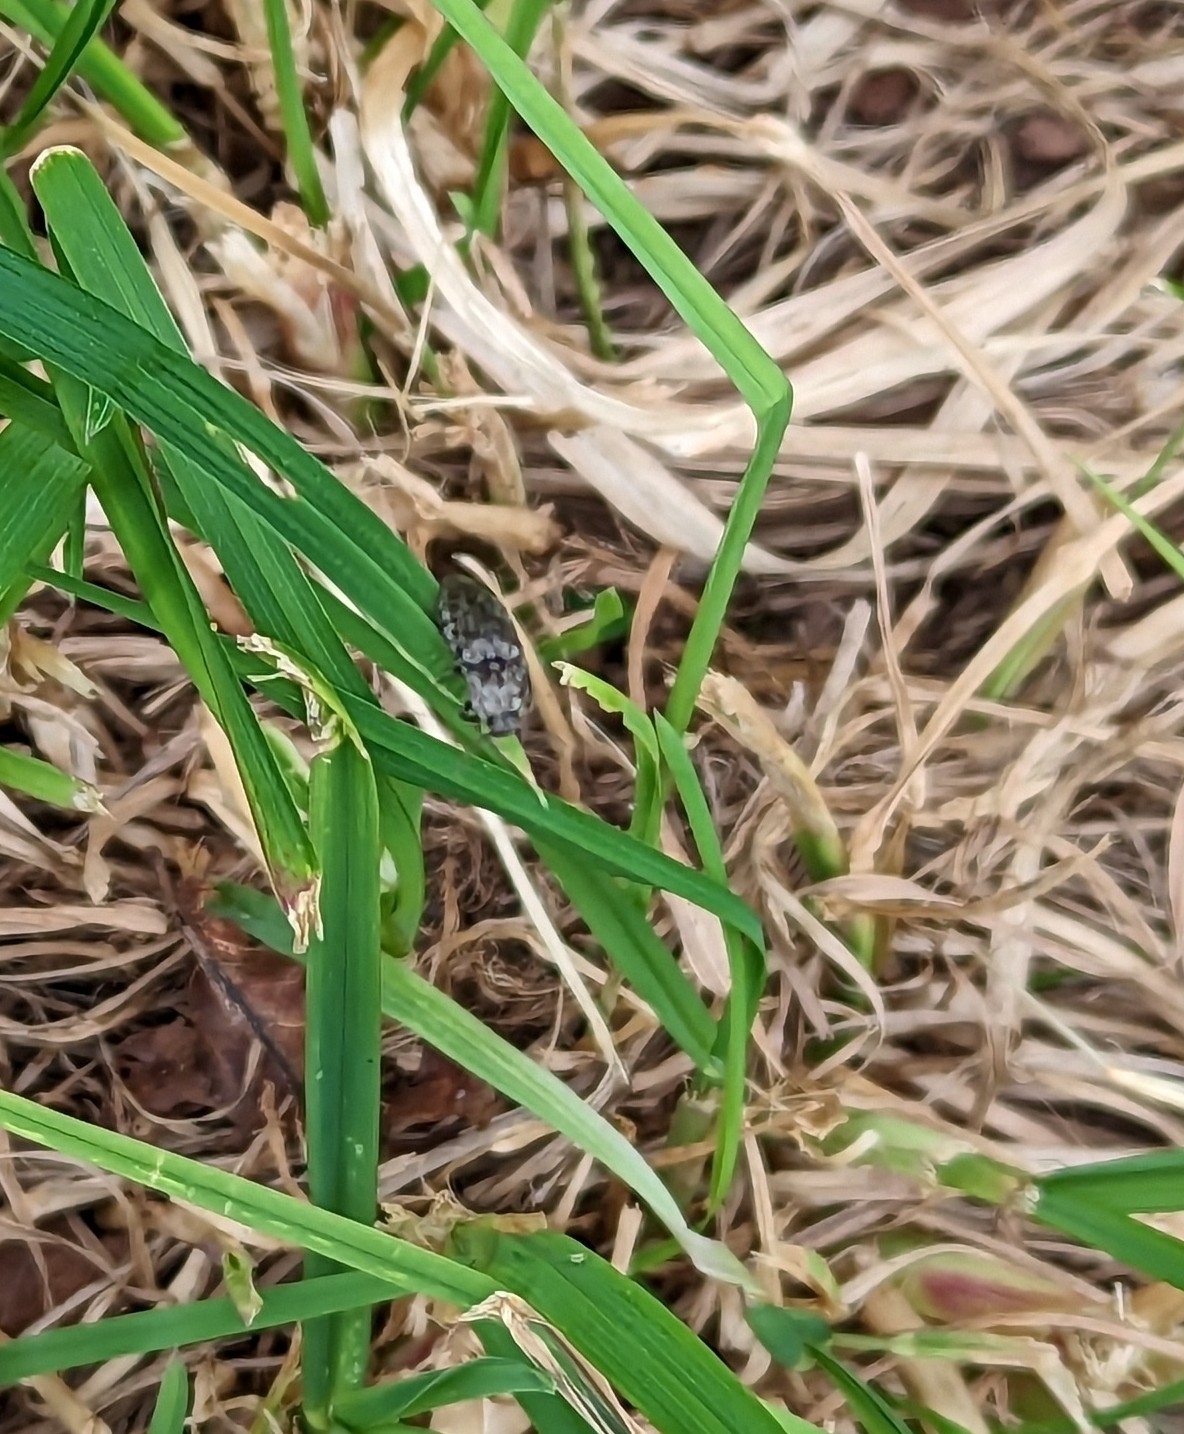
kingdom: Animalia
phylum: Arthropoda
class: Insecta
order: Coleoptera
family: Elateridae
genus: Agrypnus
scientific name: Agrypnus murinus
